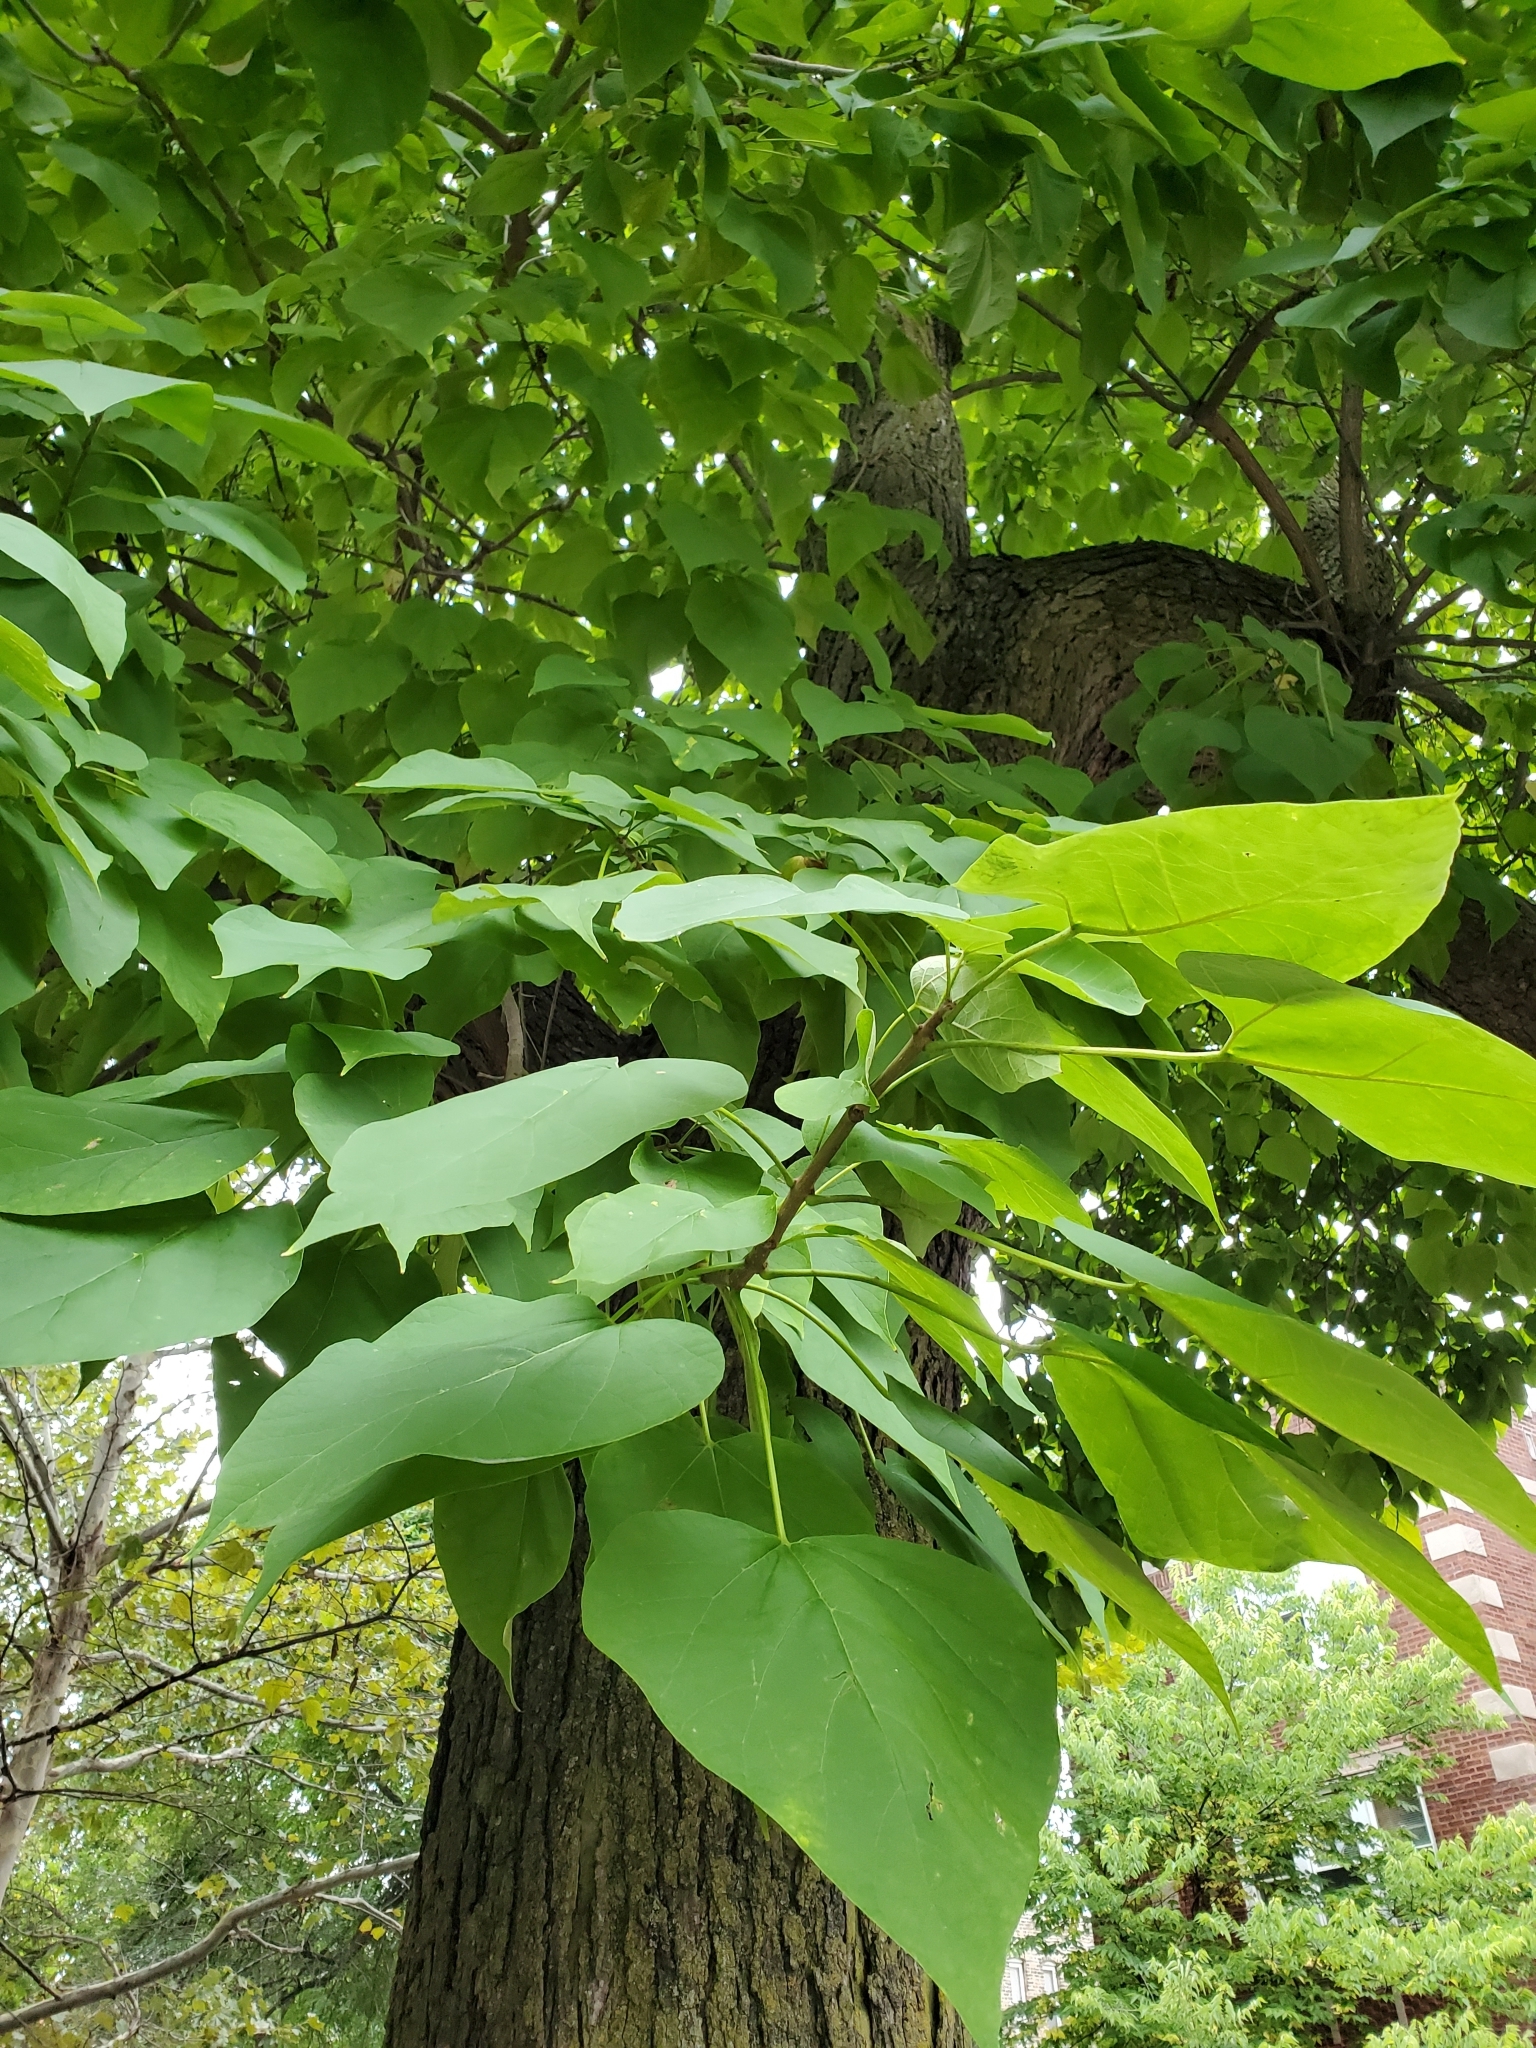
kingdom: Plantae
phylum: Tracheophyta
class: Magnoliopsida
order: Lamiales
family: Bignoniaceae
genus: Catalpa
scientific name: Catalpa speciosa
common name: Northern catalpa
